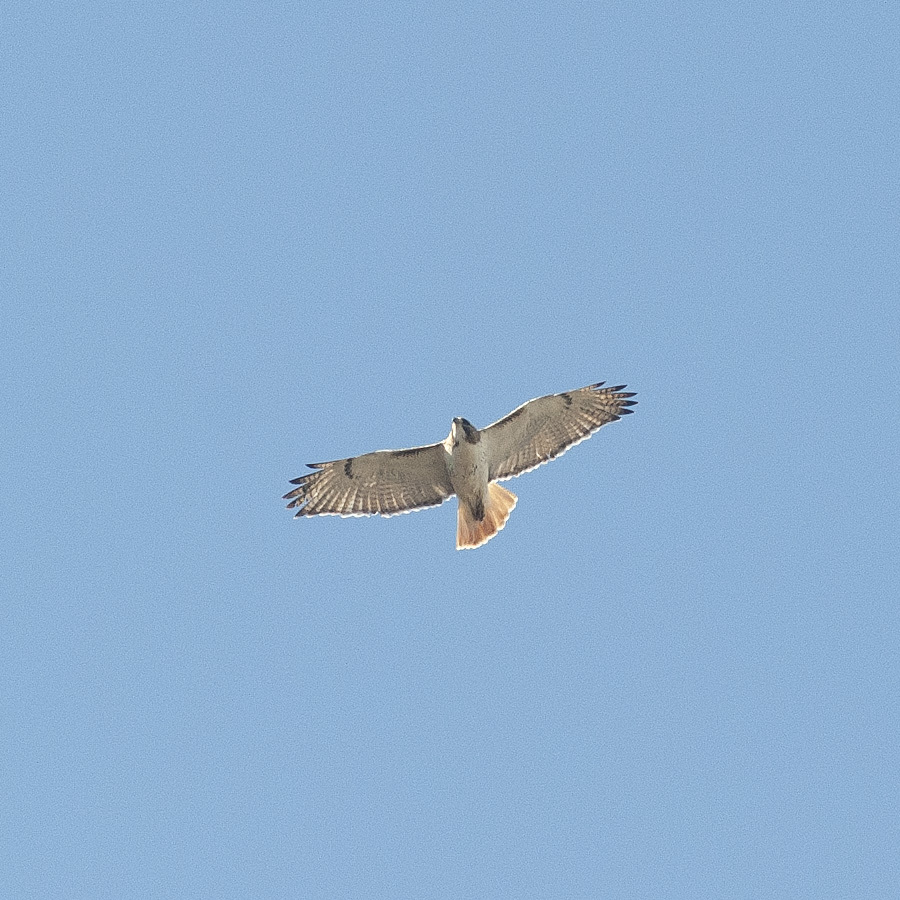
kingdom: Animalia
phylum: Chordata
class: Aves
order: Accipitriformes
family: Accipitridae
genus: Buteo
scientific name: Buteo jamaicensis
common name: Red-tailed hawk
